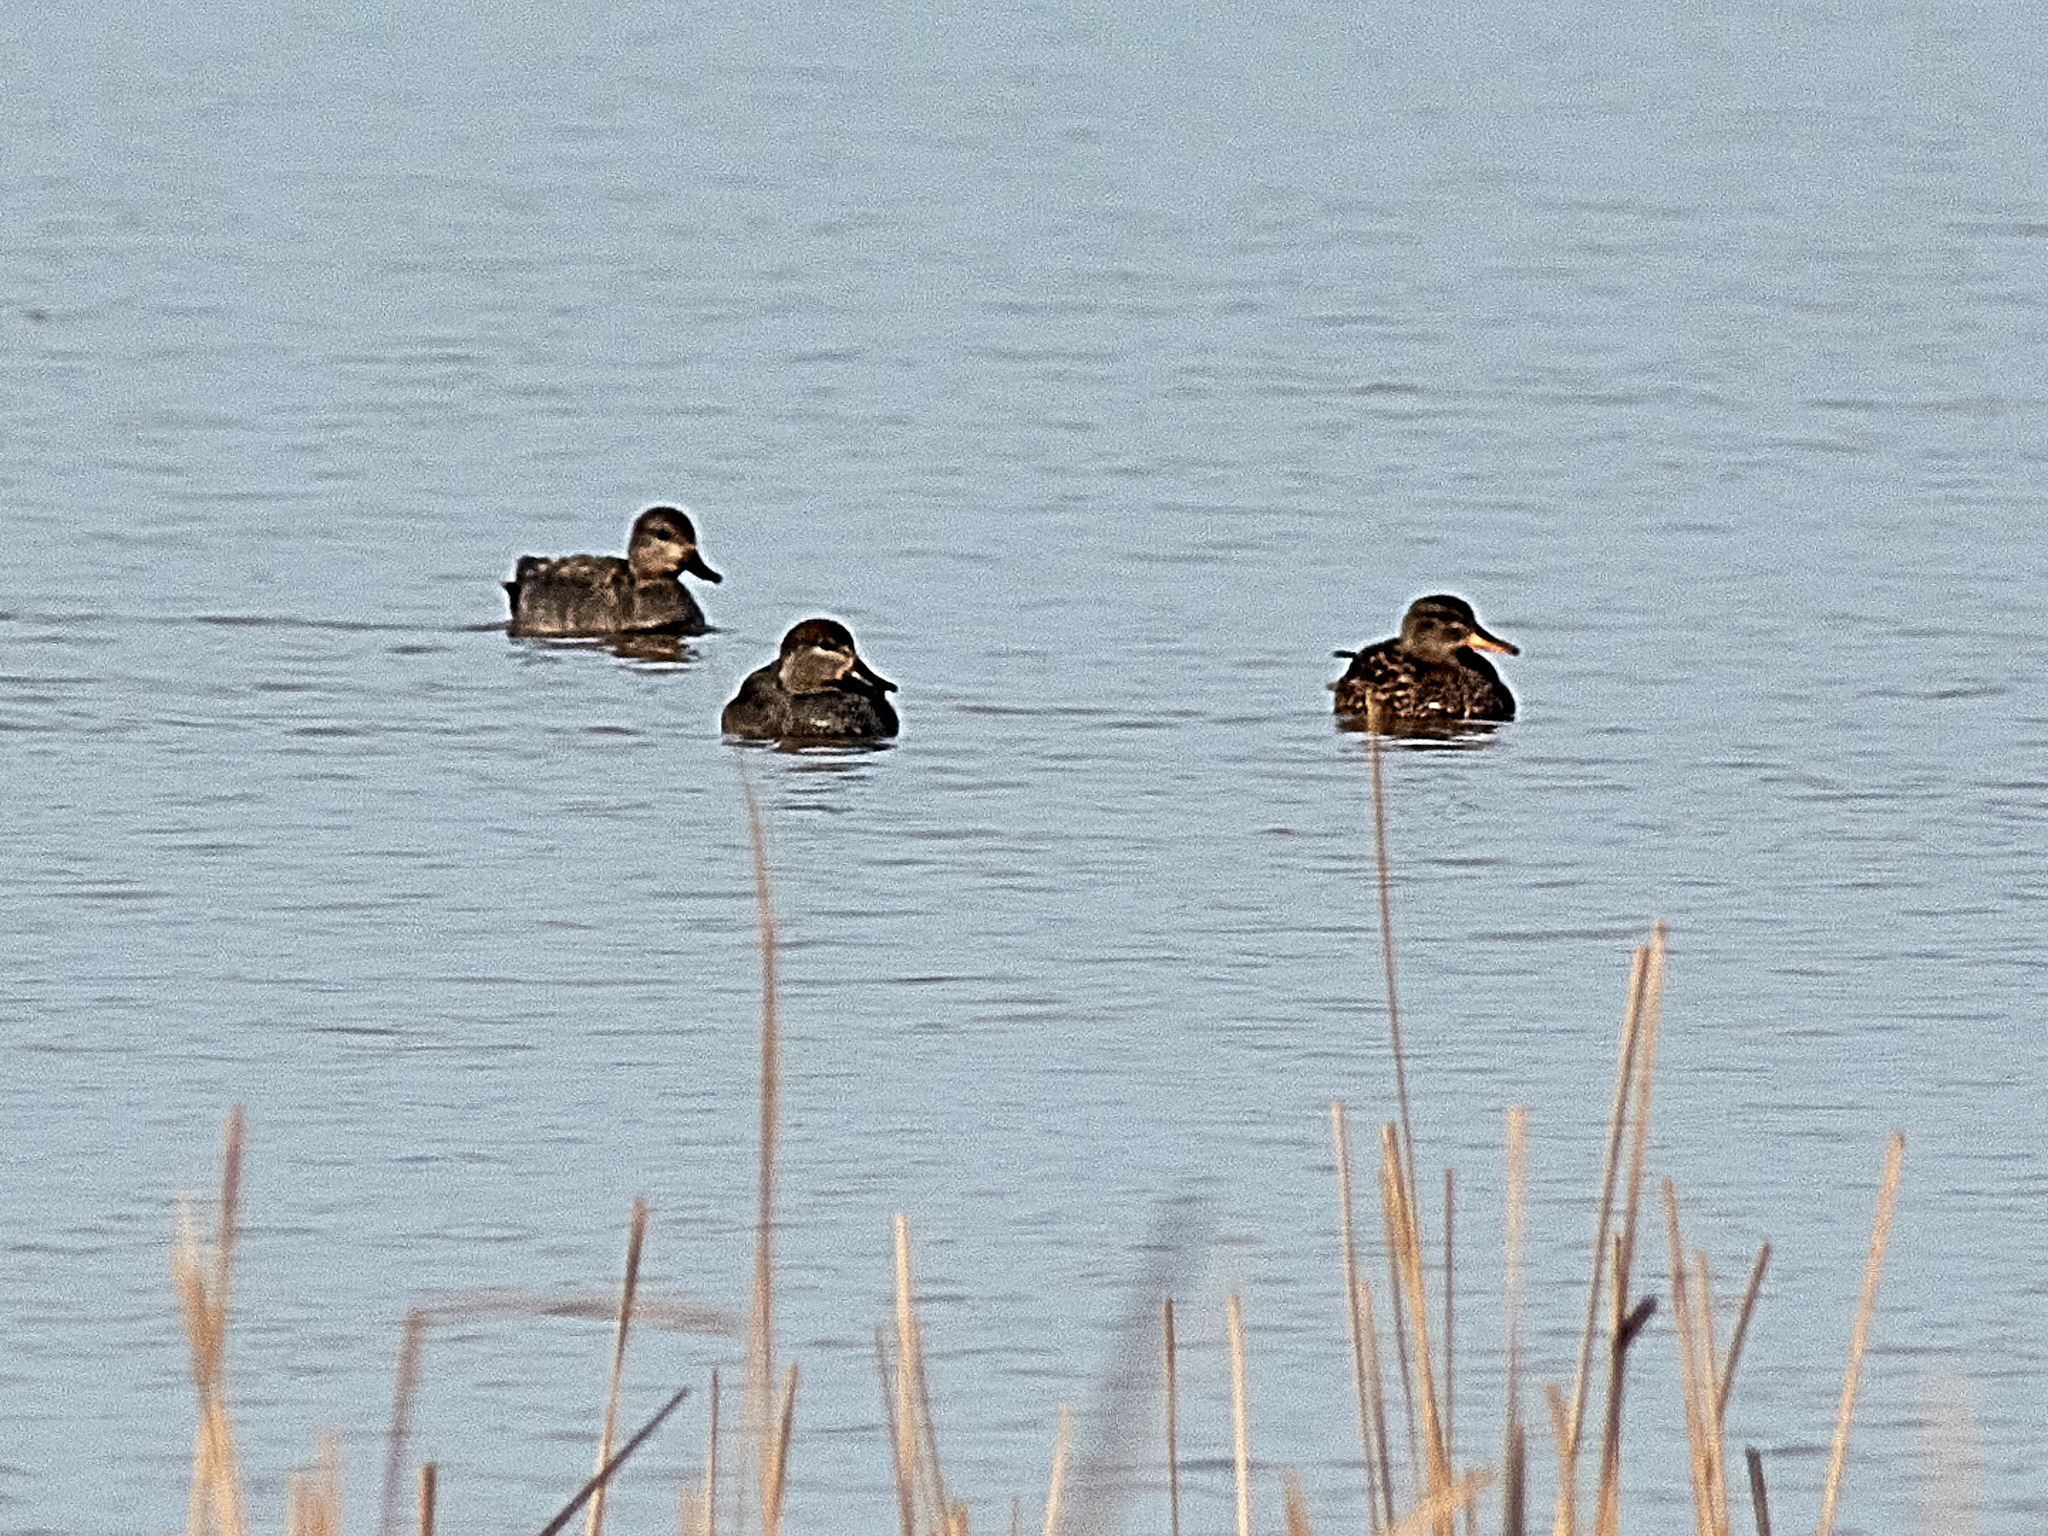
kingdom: Animalia
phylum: Chordata
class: Aves
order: Anseriformes
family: Anatidae
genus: Mareca
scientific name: Mareca strepera
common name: Gadwall
